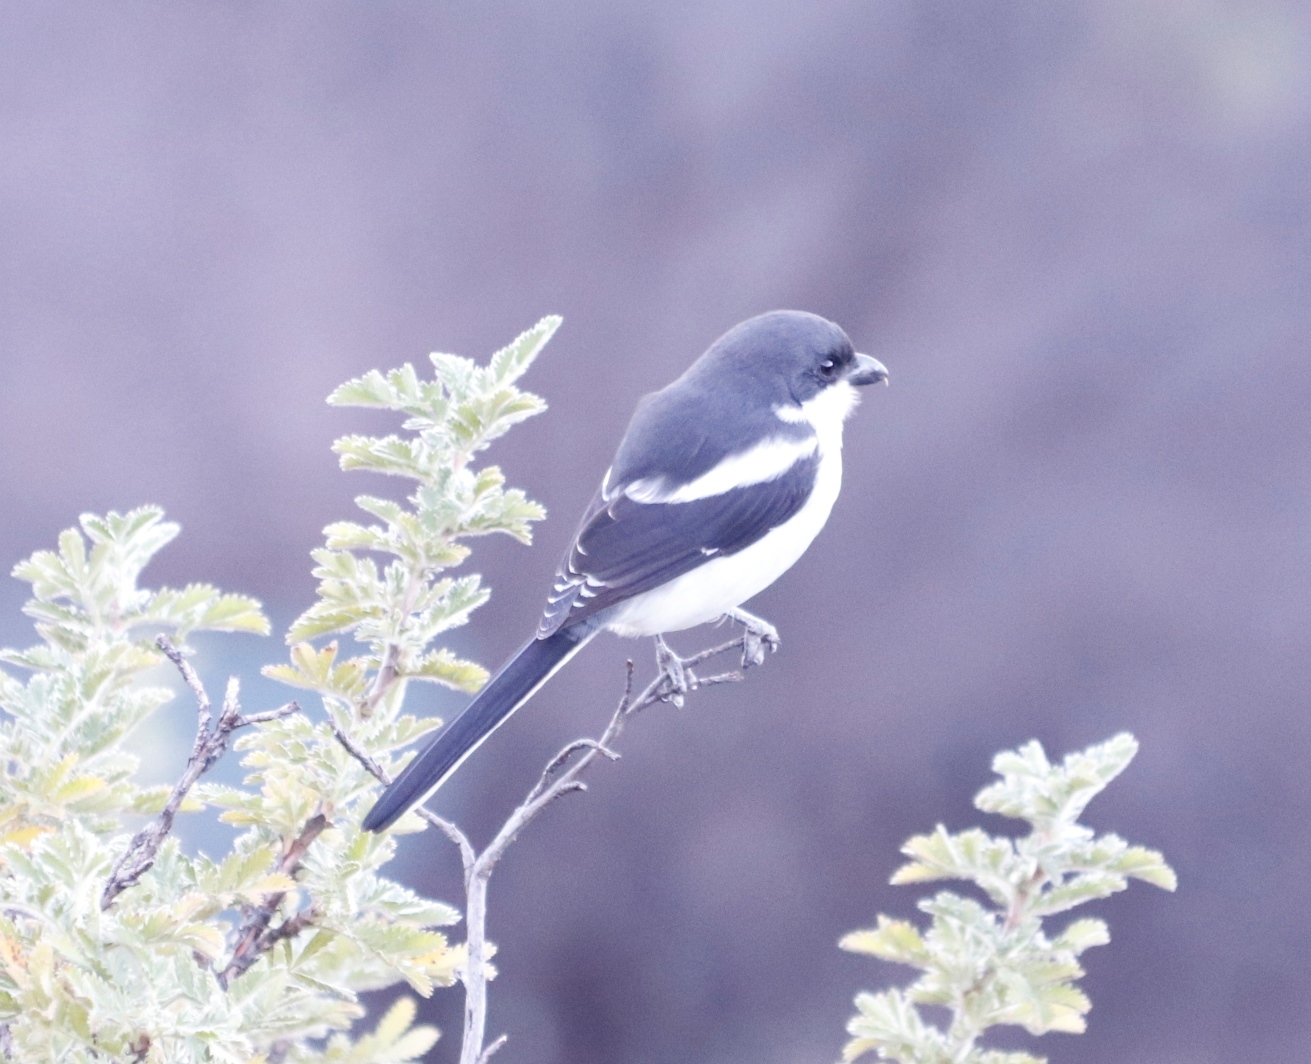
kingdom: Animalia
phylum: Chordata
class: Aves
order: Passeriformes
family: Laniidae
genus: Lanius
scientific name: Lanius collaris
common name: Southern fiscal
